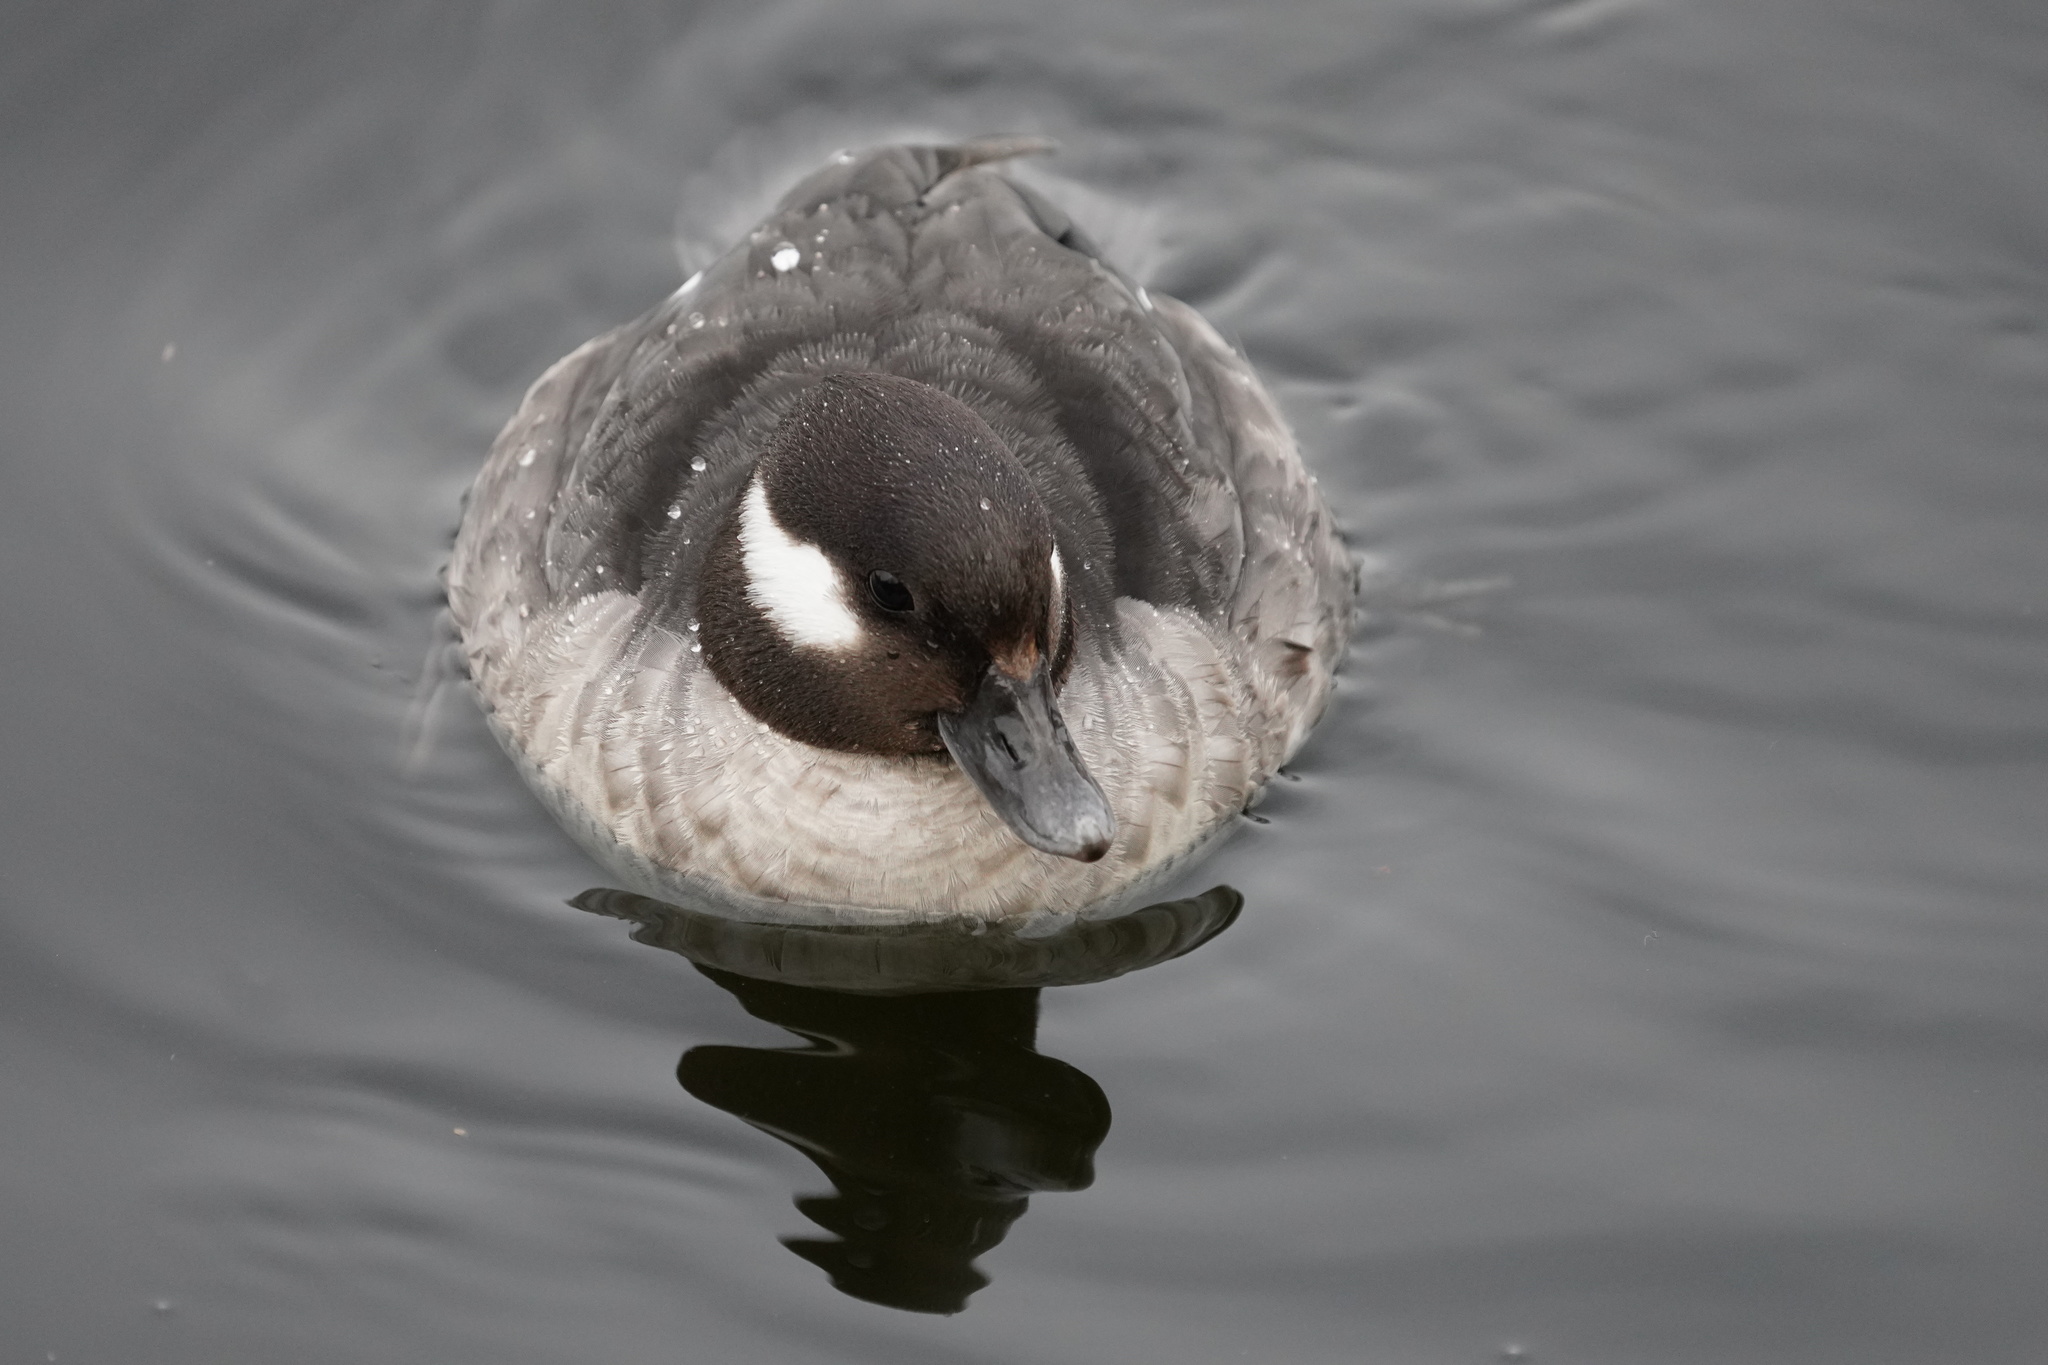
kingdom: Animalia
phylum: Chordata
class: Aves
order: Anseriformes
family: Anatidae
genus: Bucephala
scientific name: Bucephala albeola
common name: Bufflehead
